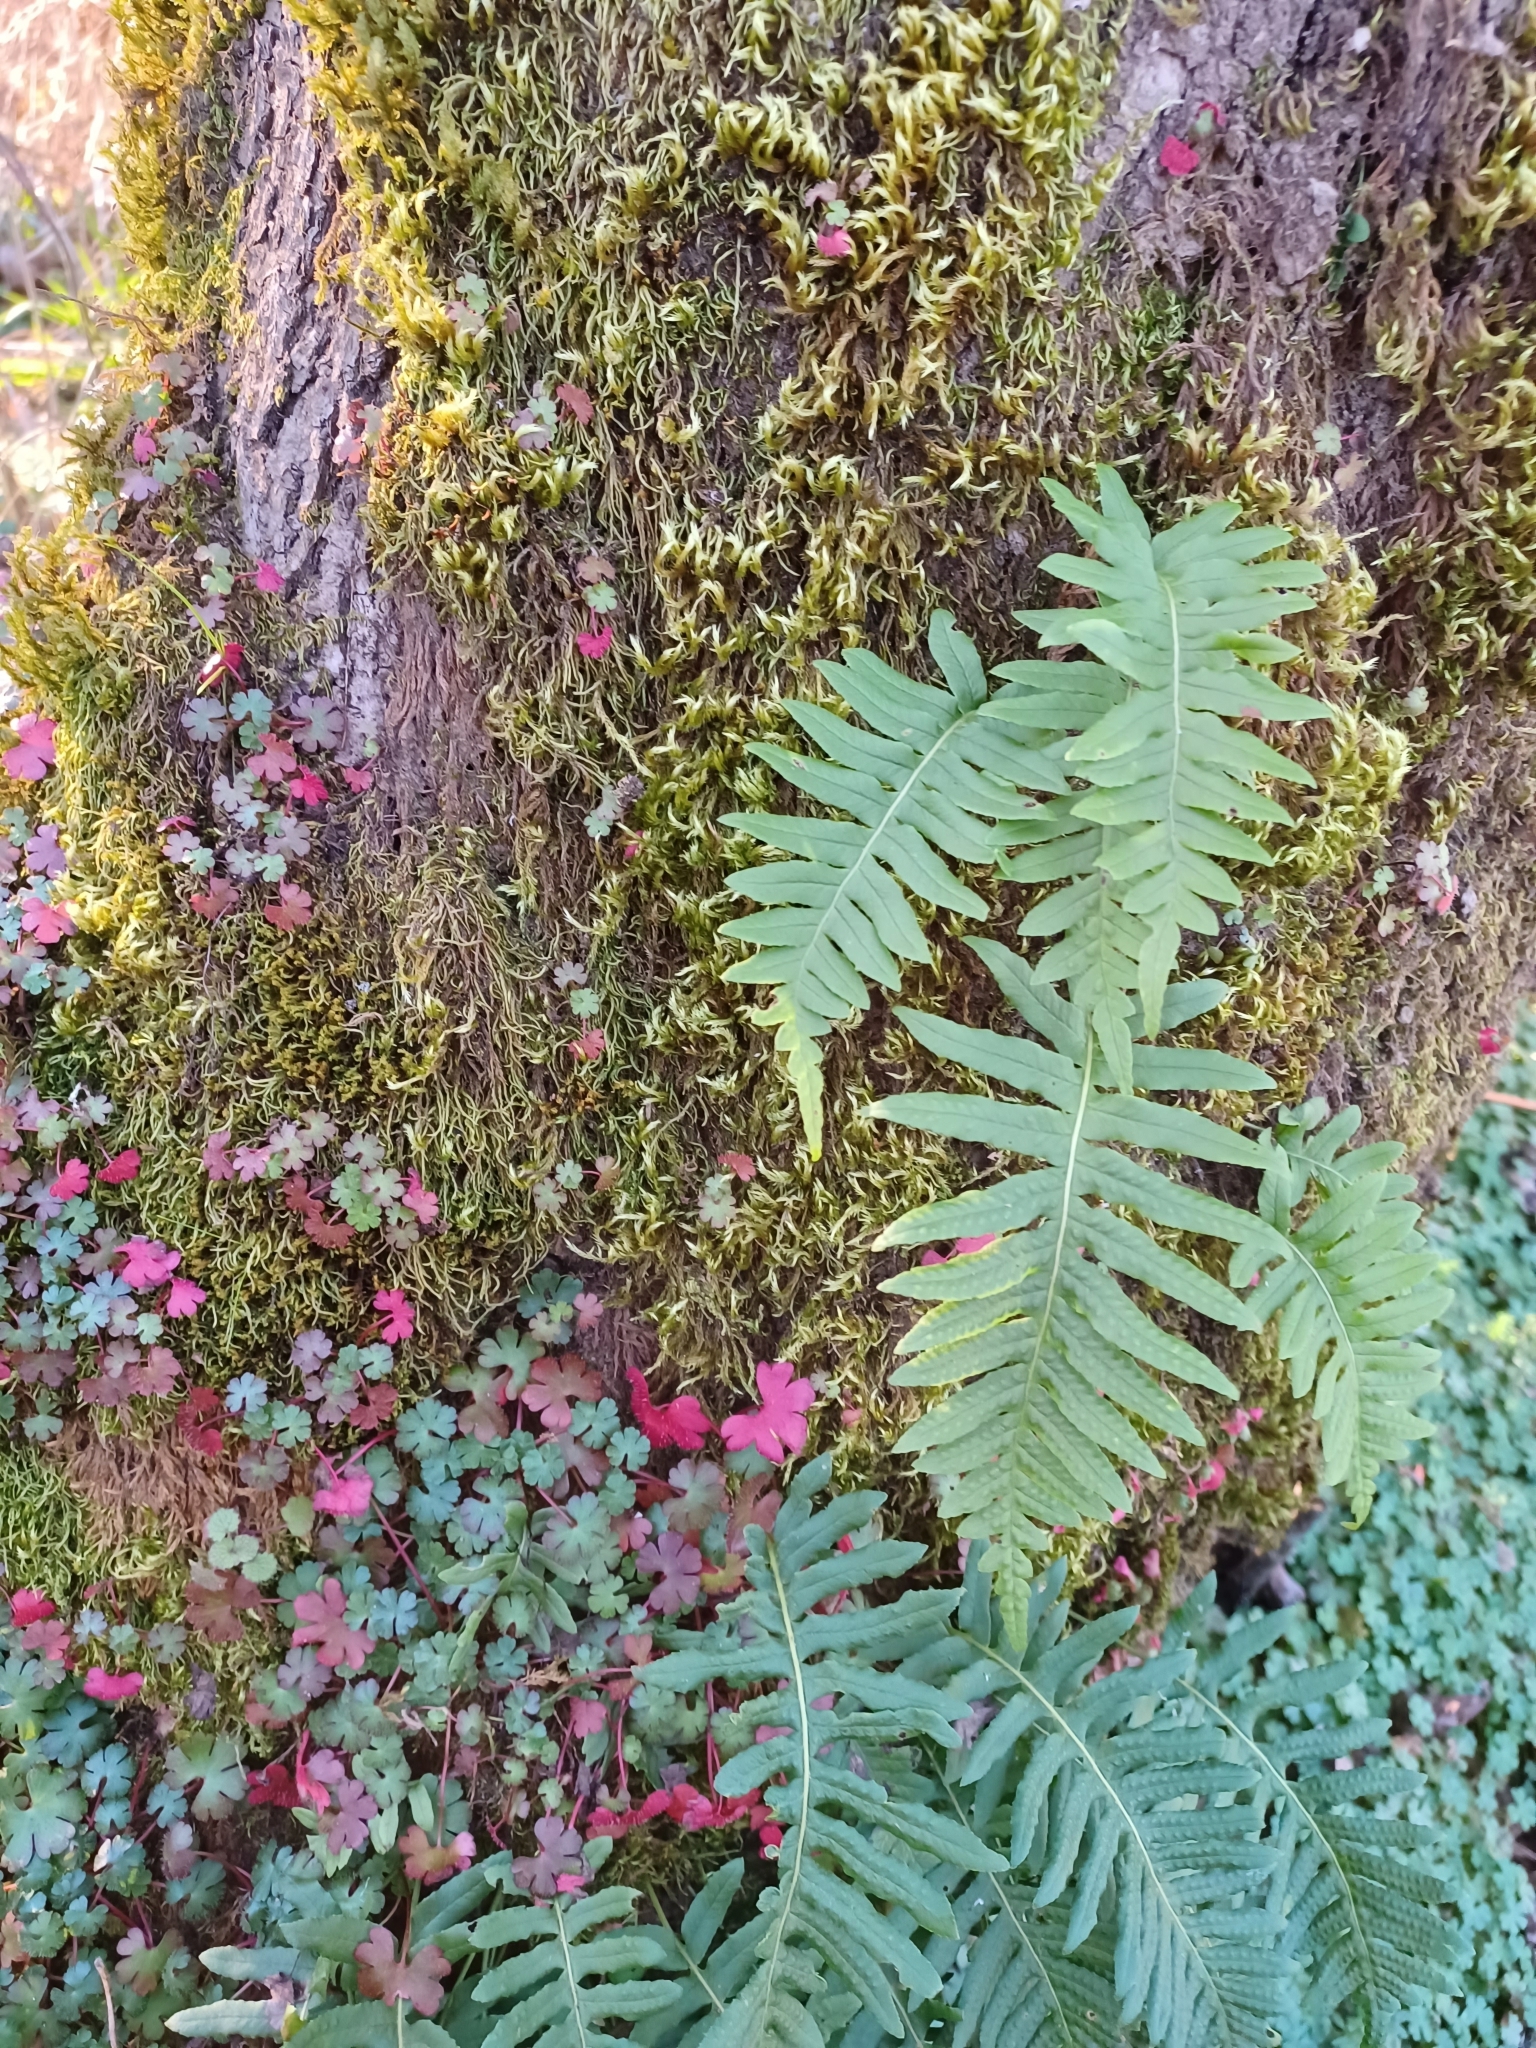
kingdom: Plantae
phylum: Tracheophyta
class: Polypodiopsida
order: Polypodiales
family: Polypodiaceae
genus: Polypodium
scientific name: Polypodium glycyrrhiza
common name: Licorice fern
